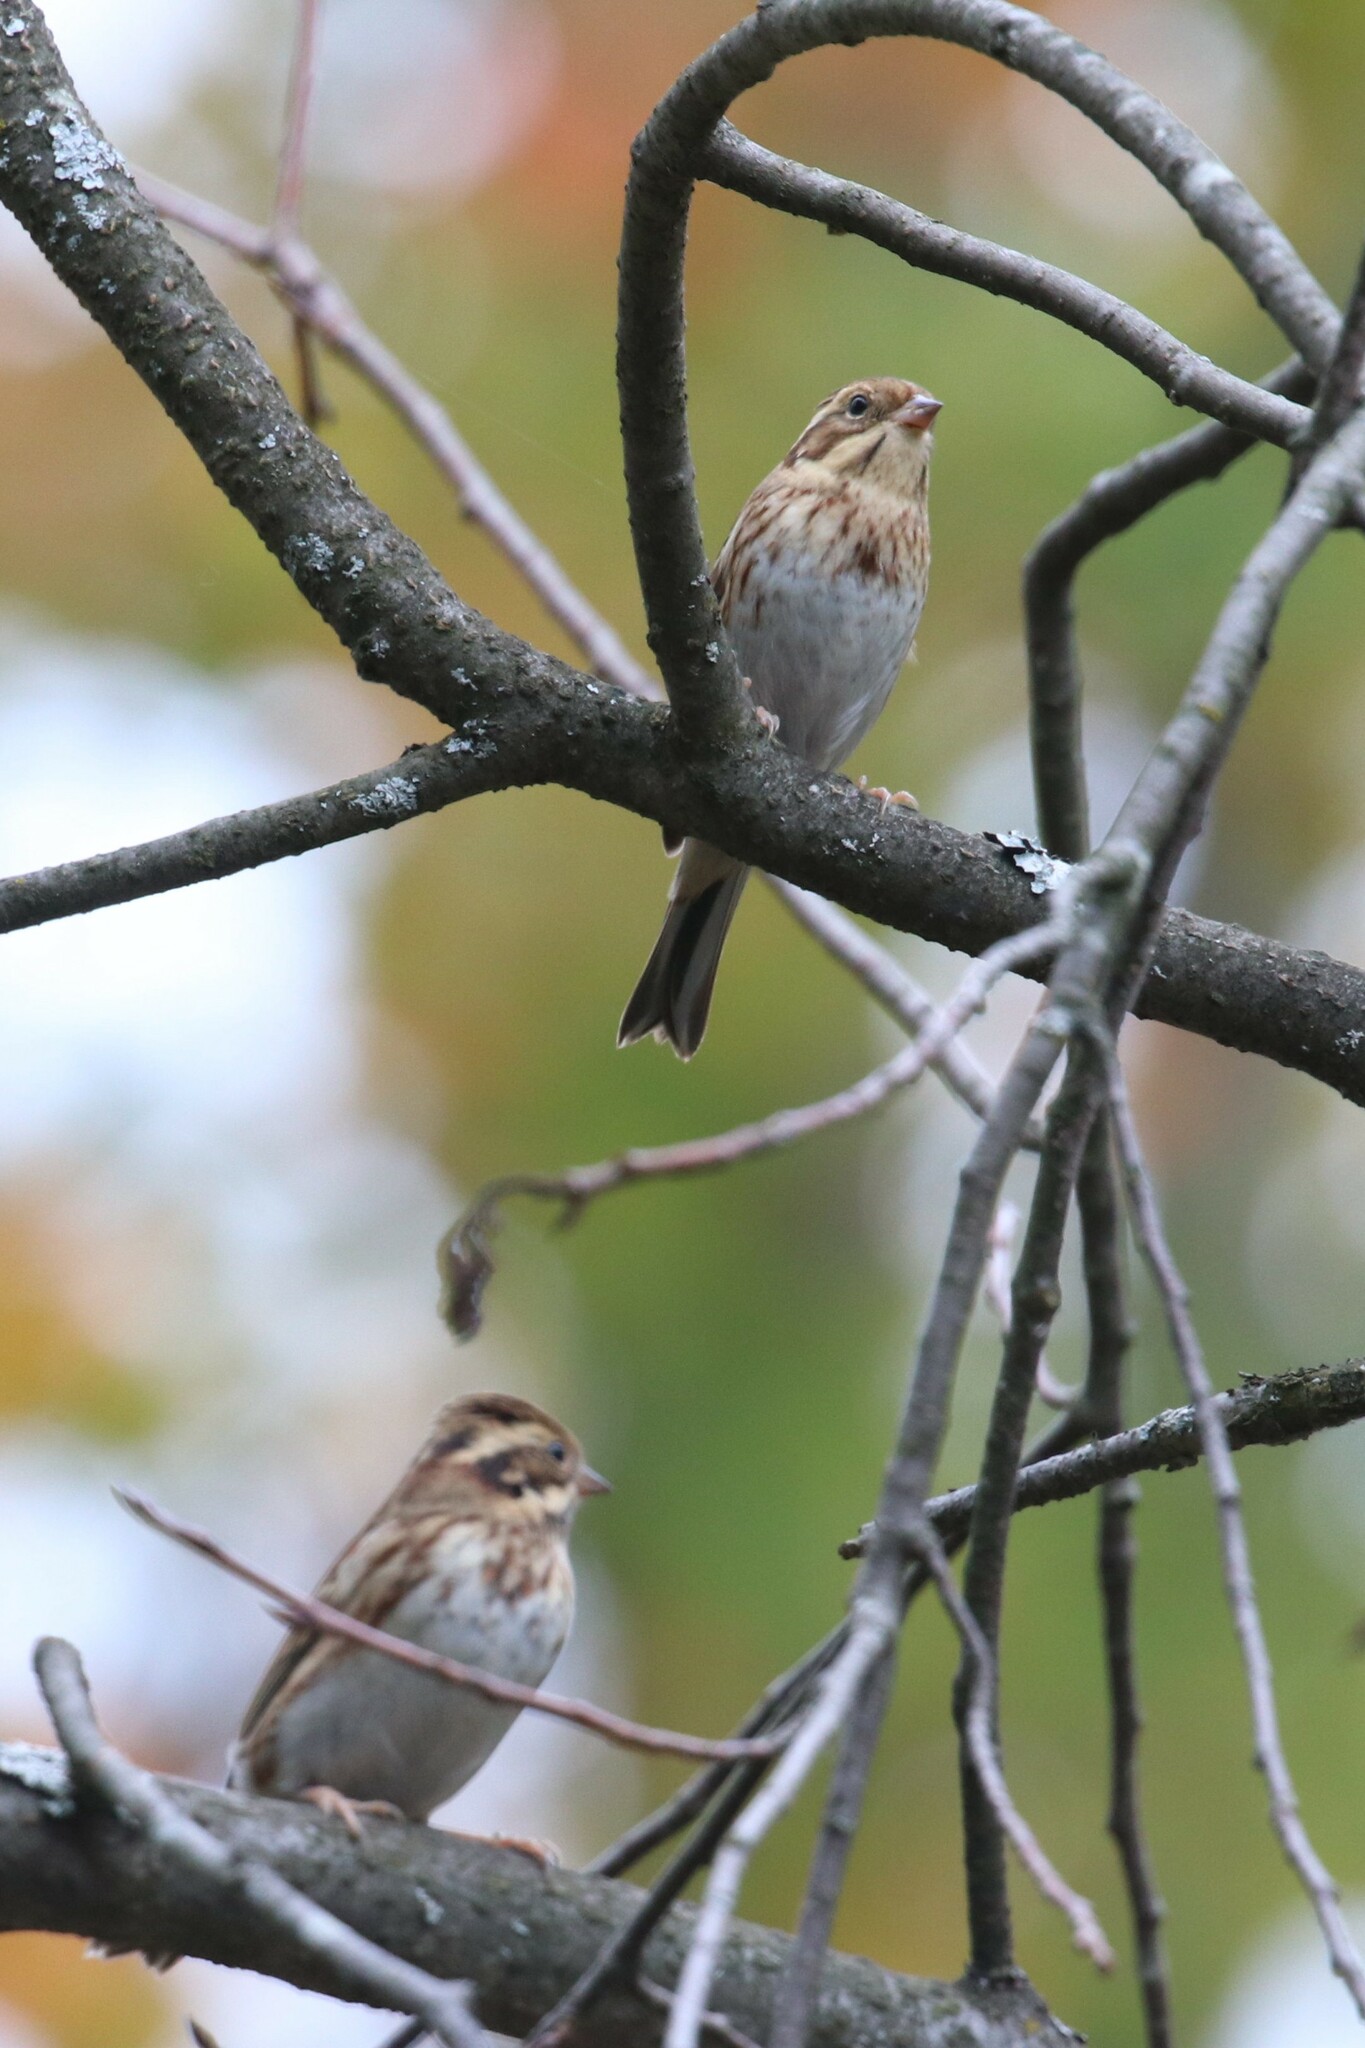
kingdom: Animalia
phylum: Chordata
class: Aves
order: Passeriformes
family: Emberizidae
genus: Emberiza
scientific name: Emberiza rustica
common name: Rustic bunting
